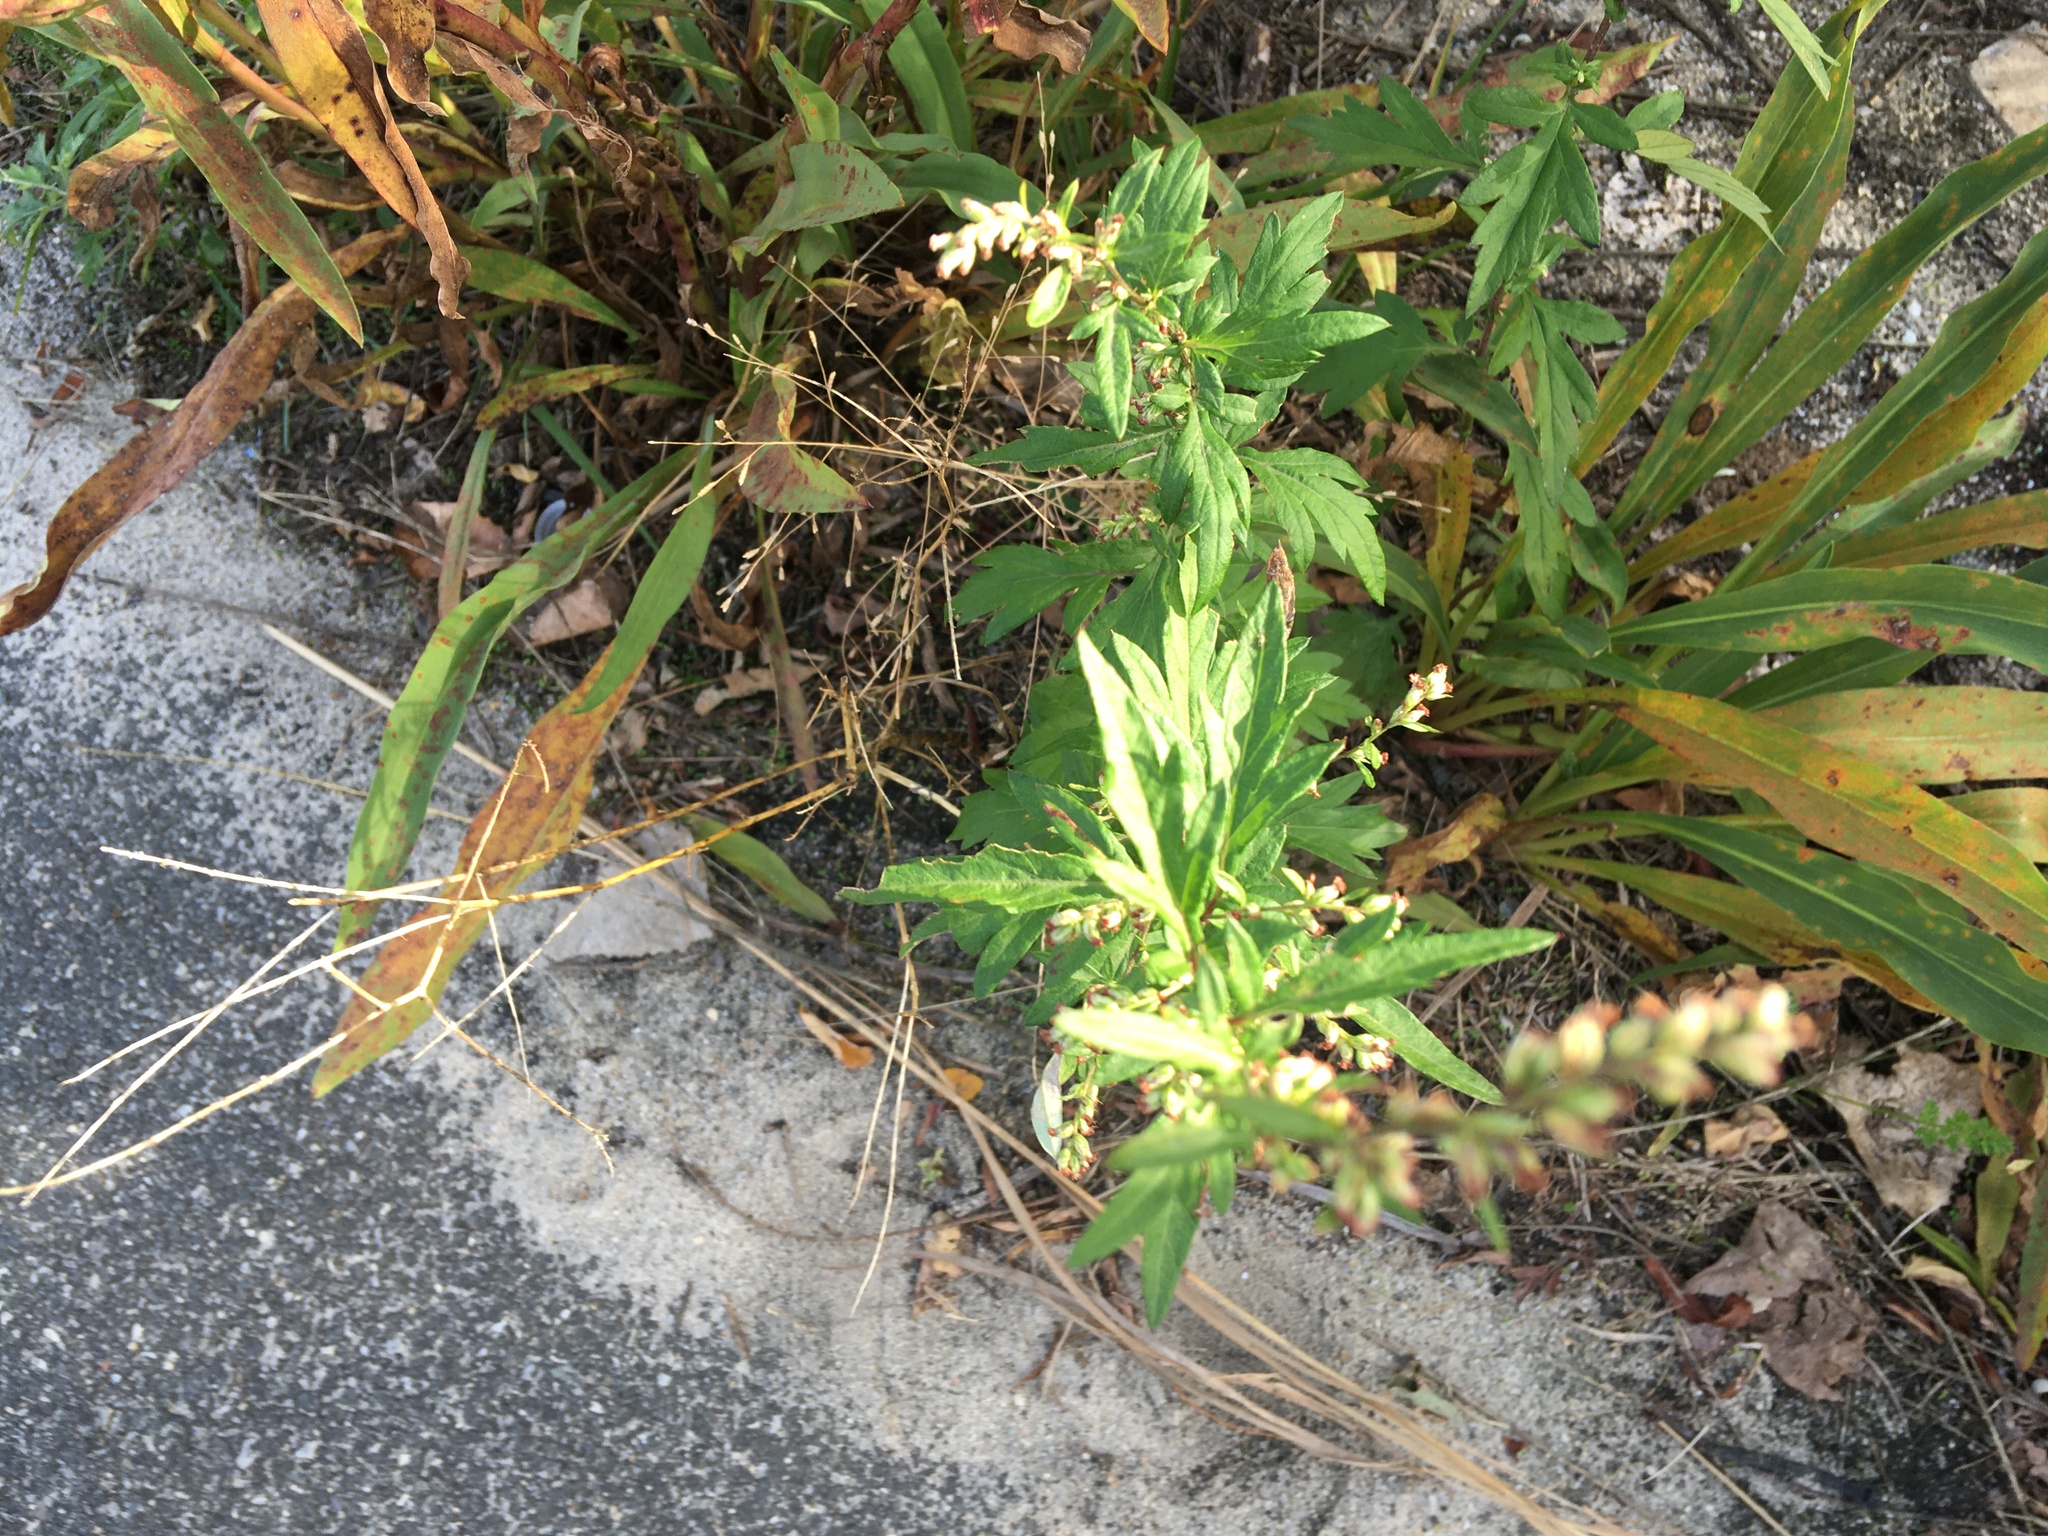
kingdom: Plantae
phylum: Tracheophyta
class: Magnoliopsida
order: Asterales
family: Asteraceae
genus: Artemisia
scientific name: Artemisia vulgaris
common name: Mugwort
